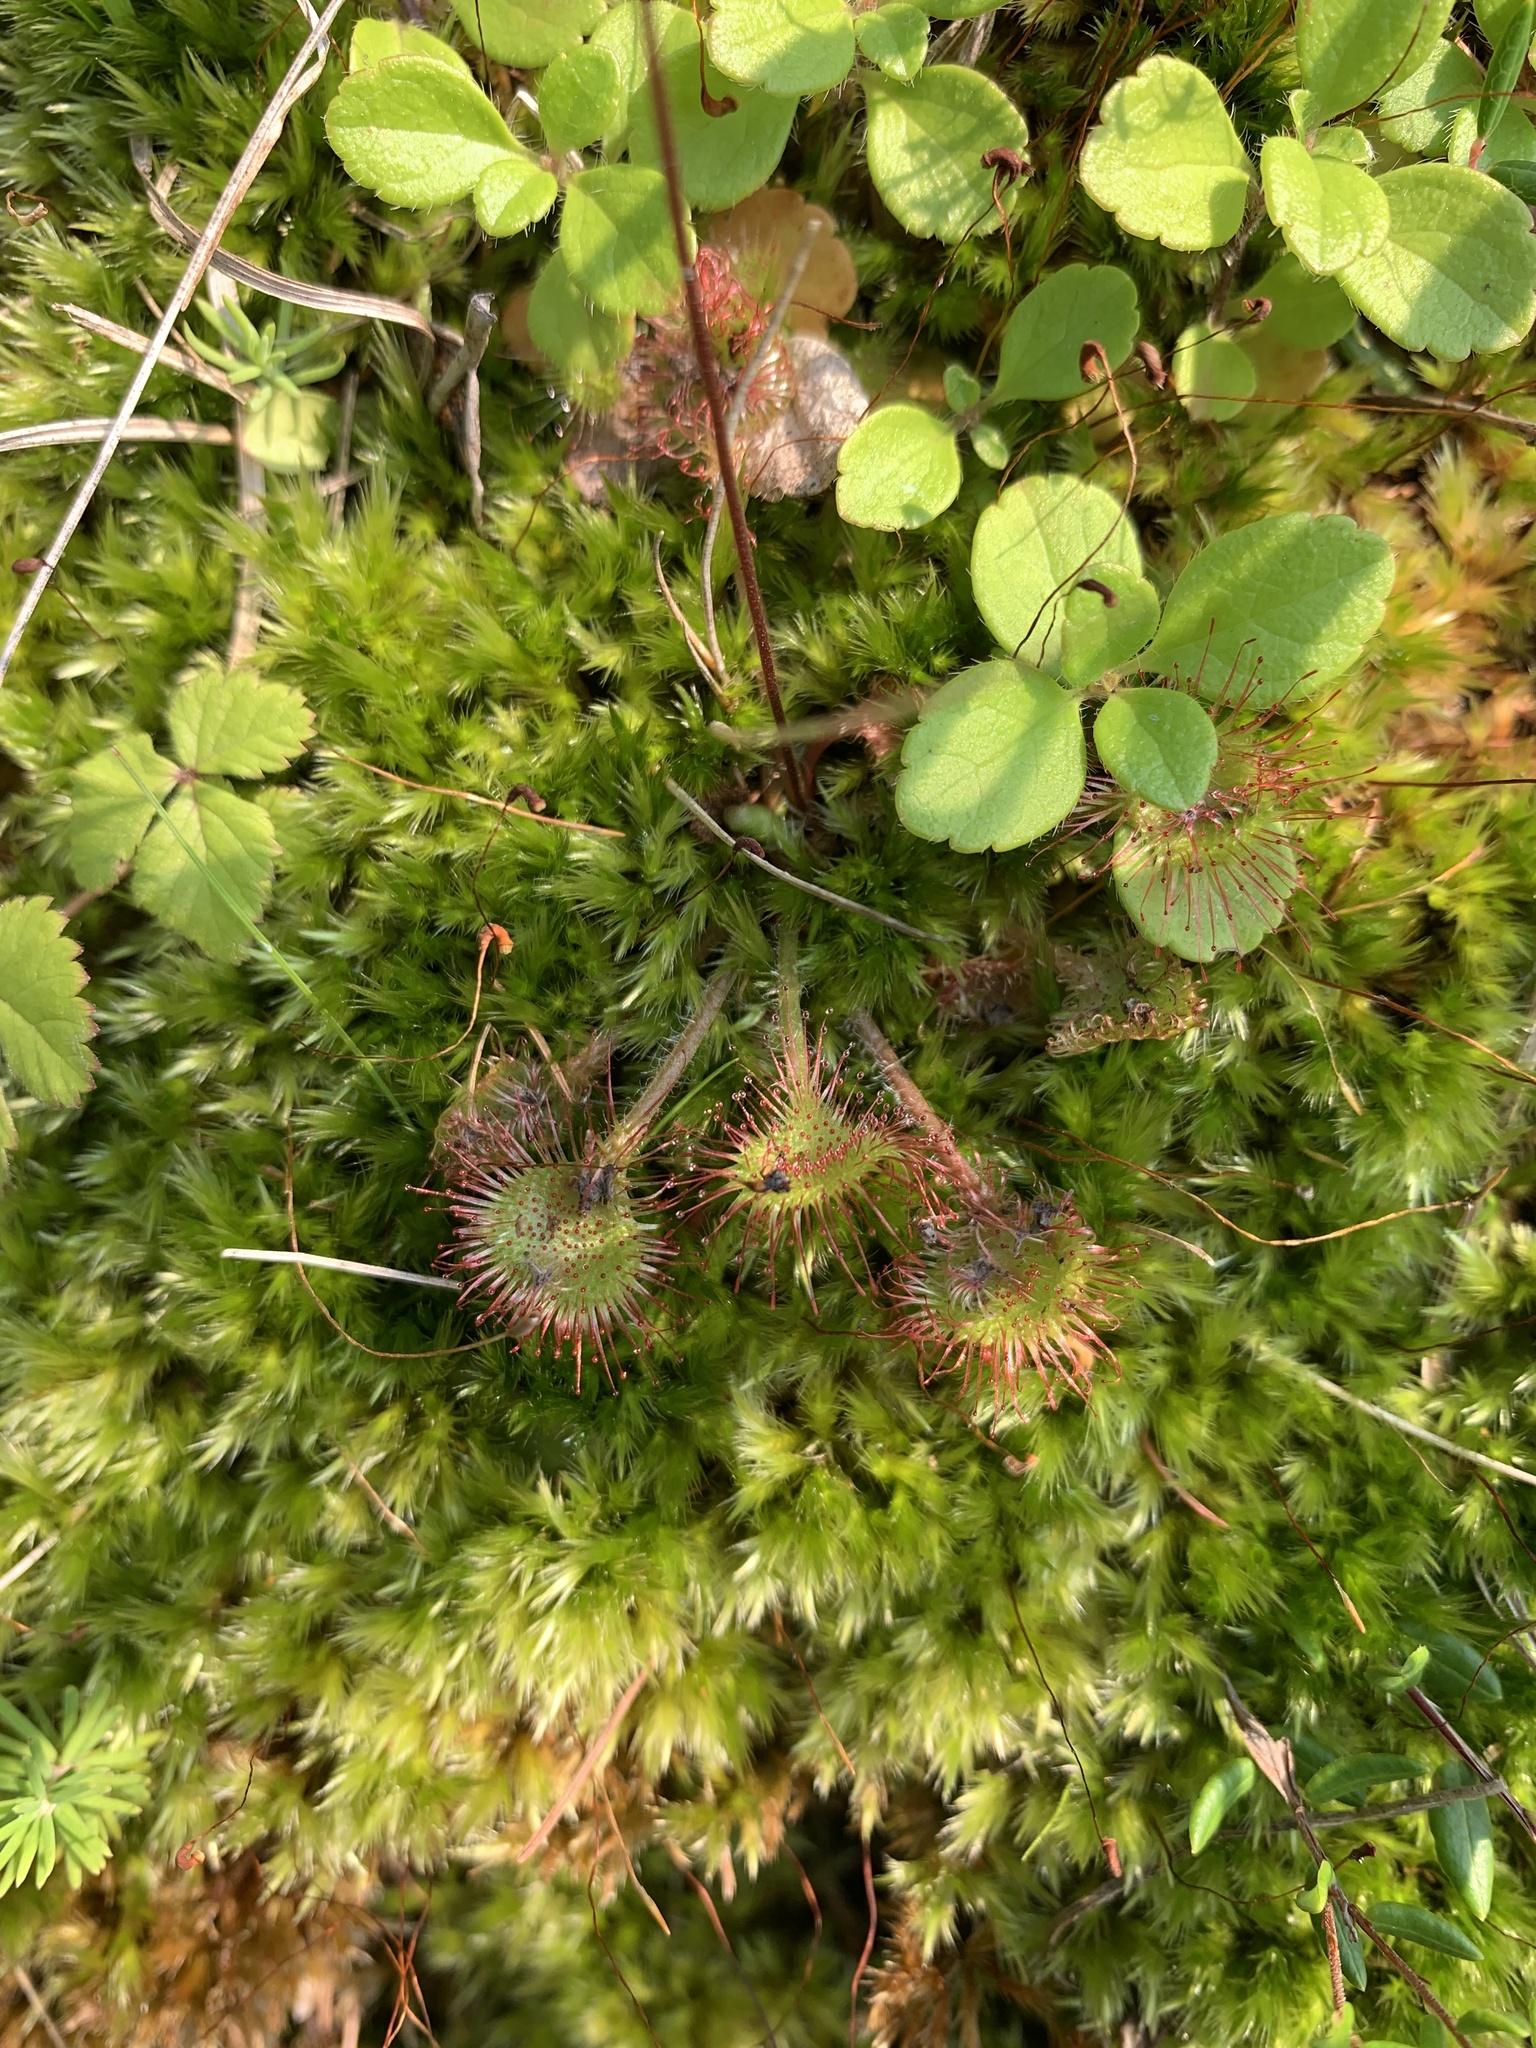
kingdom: Plantae
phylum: Tracheophyta
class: Magnoliopsida
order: Caryophyllales
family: Droseraceae
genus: Drosera
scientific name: Drosera rotundifolia
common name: Round-leaved sundew
